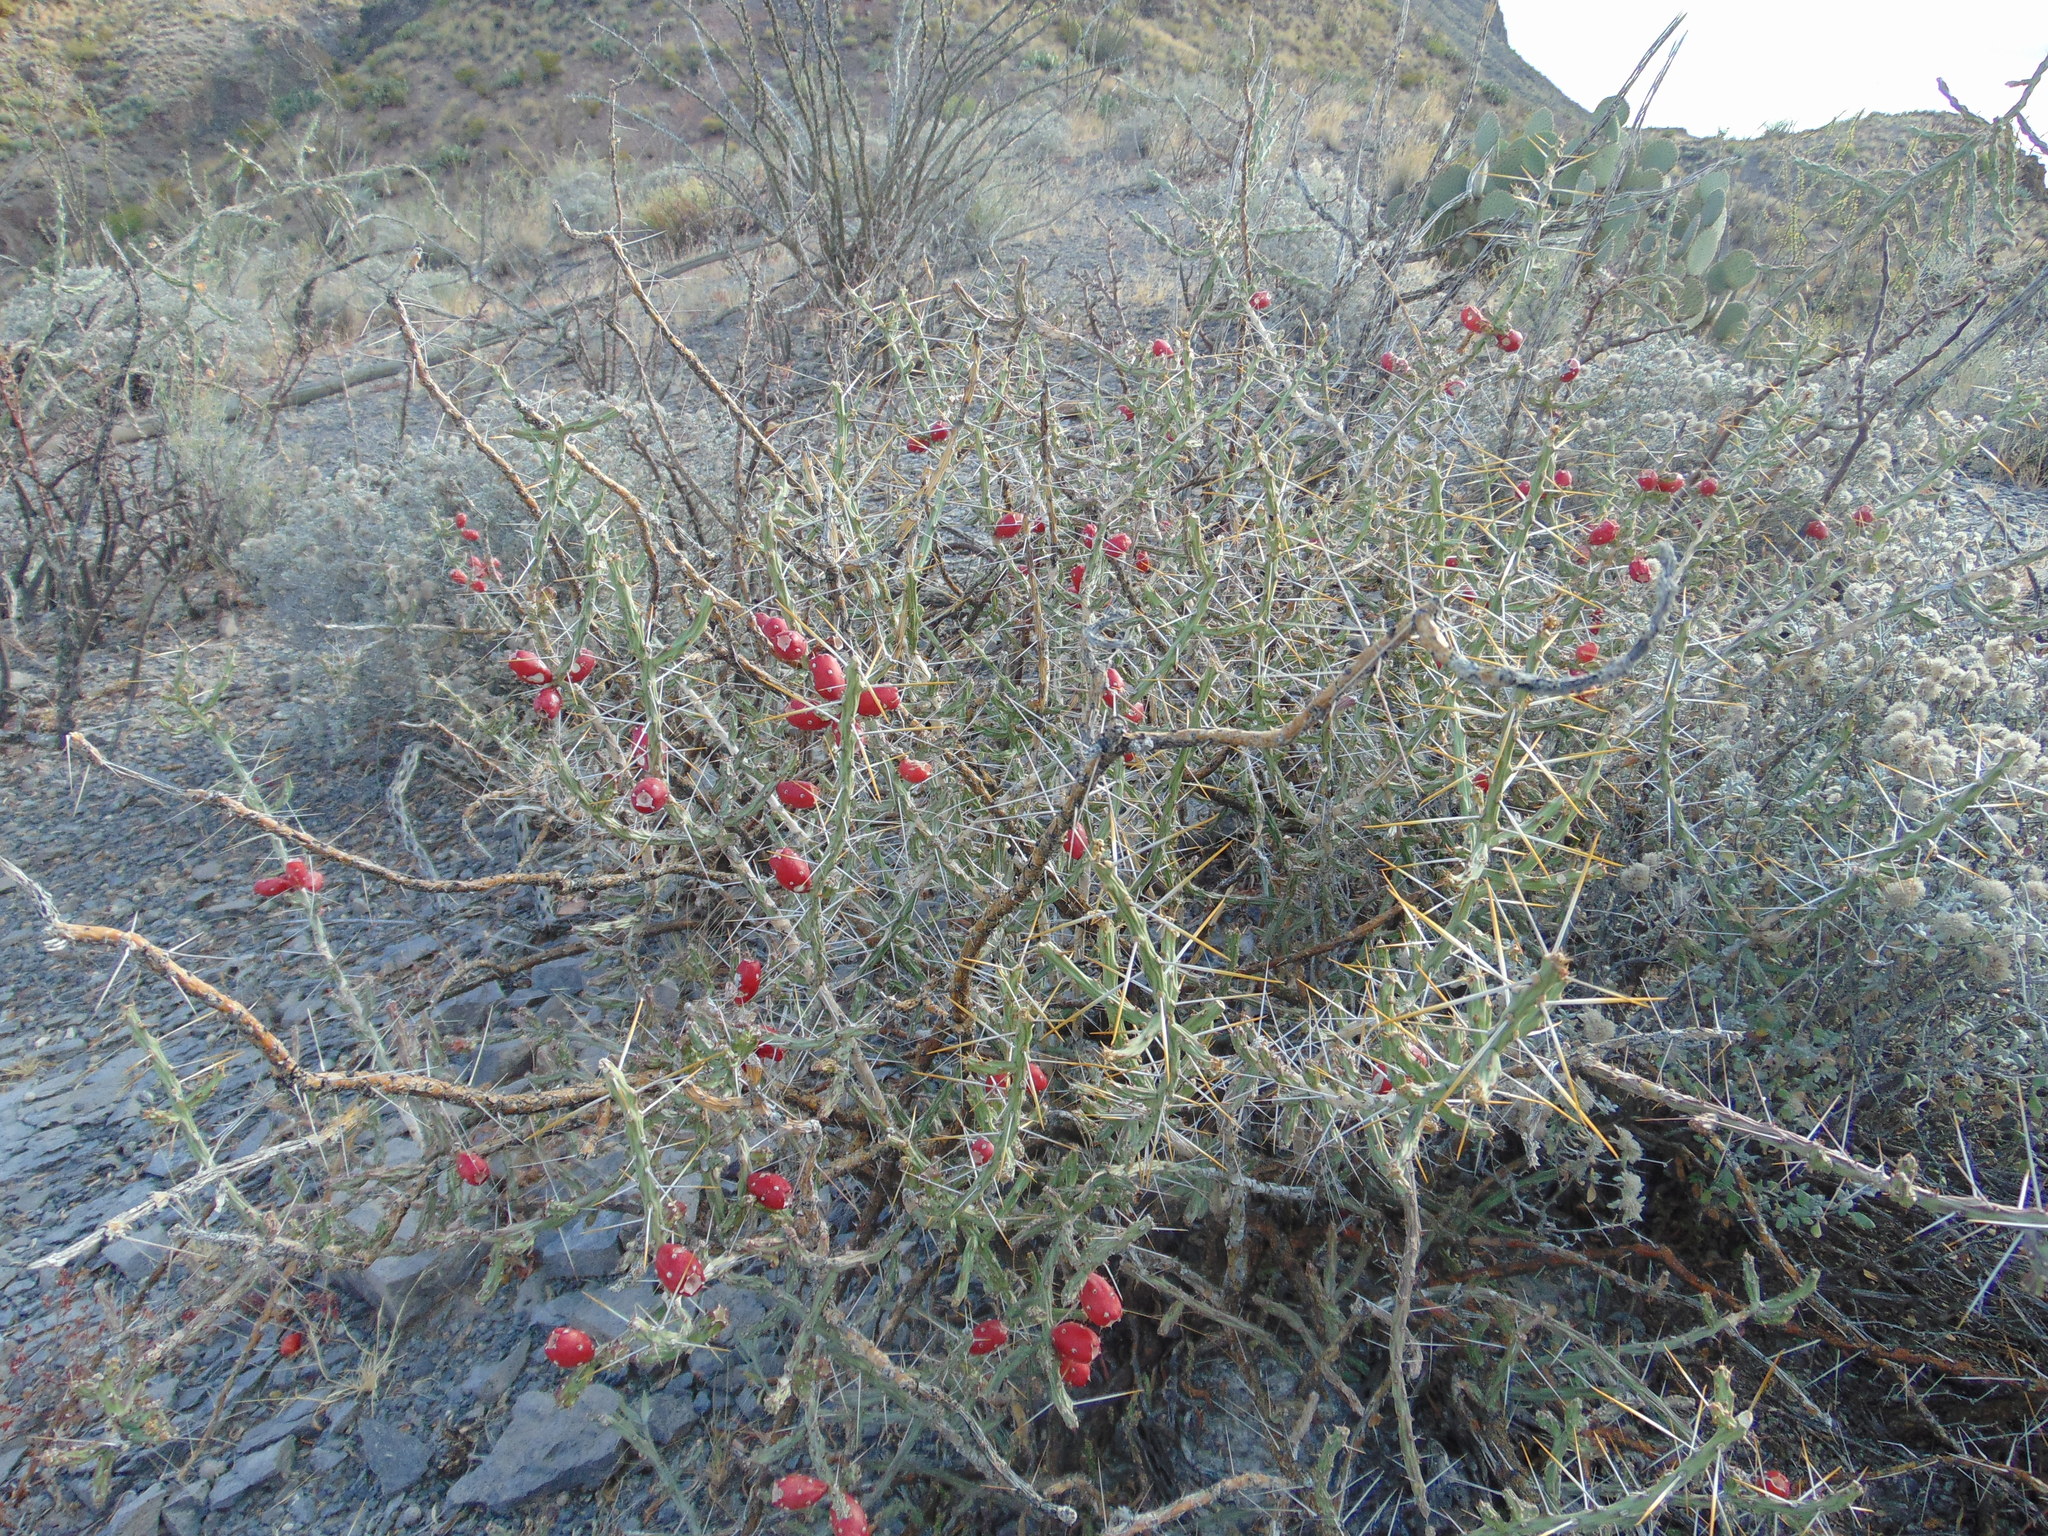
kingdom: Plantae
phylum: Tracheophyta
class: Magnoliopsida
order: Caryophyllales
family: Cactaceae
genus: Cylindropuntia
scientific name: Cylindropuntia leptocaulis
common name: Christmas cactus
